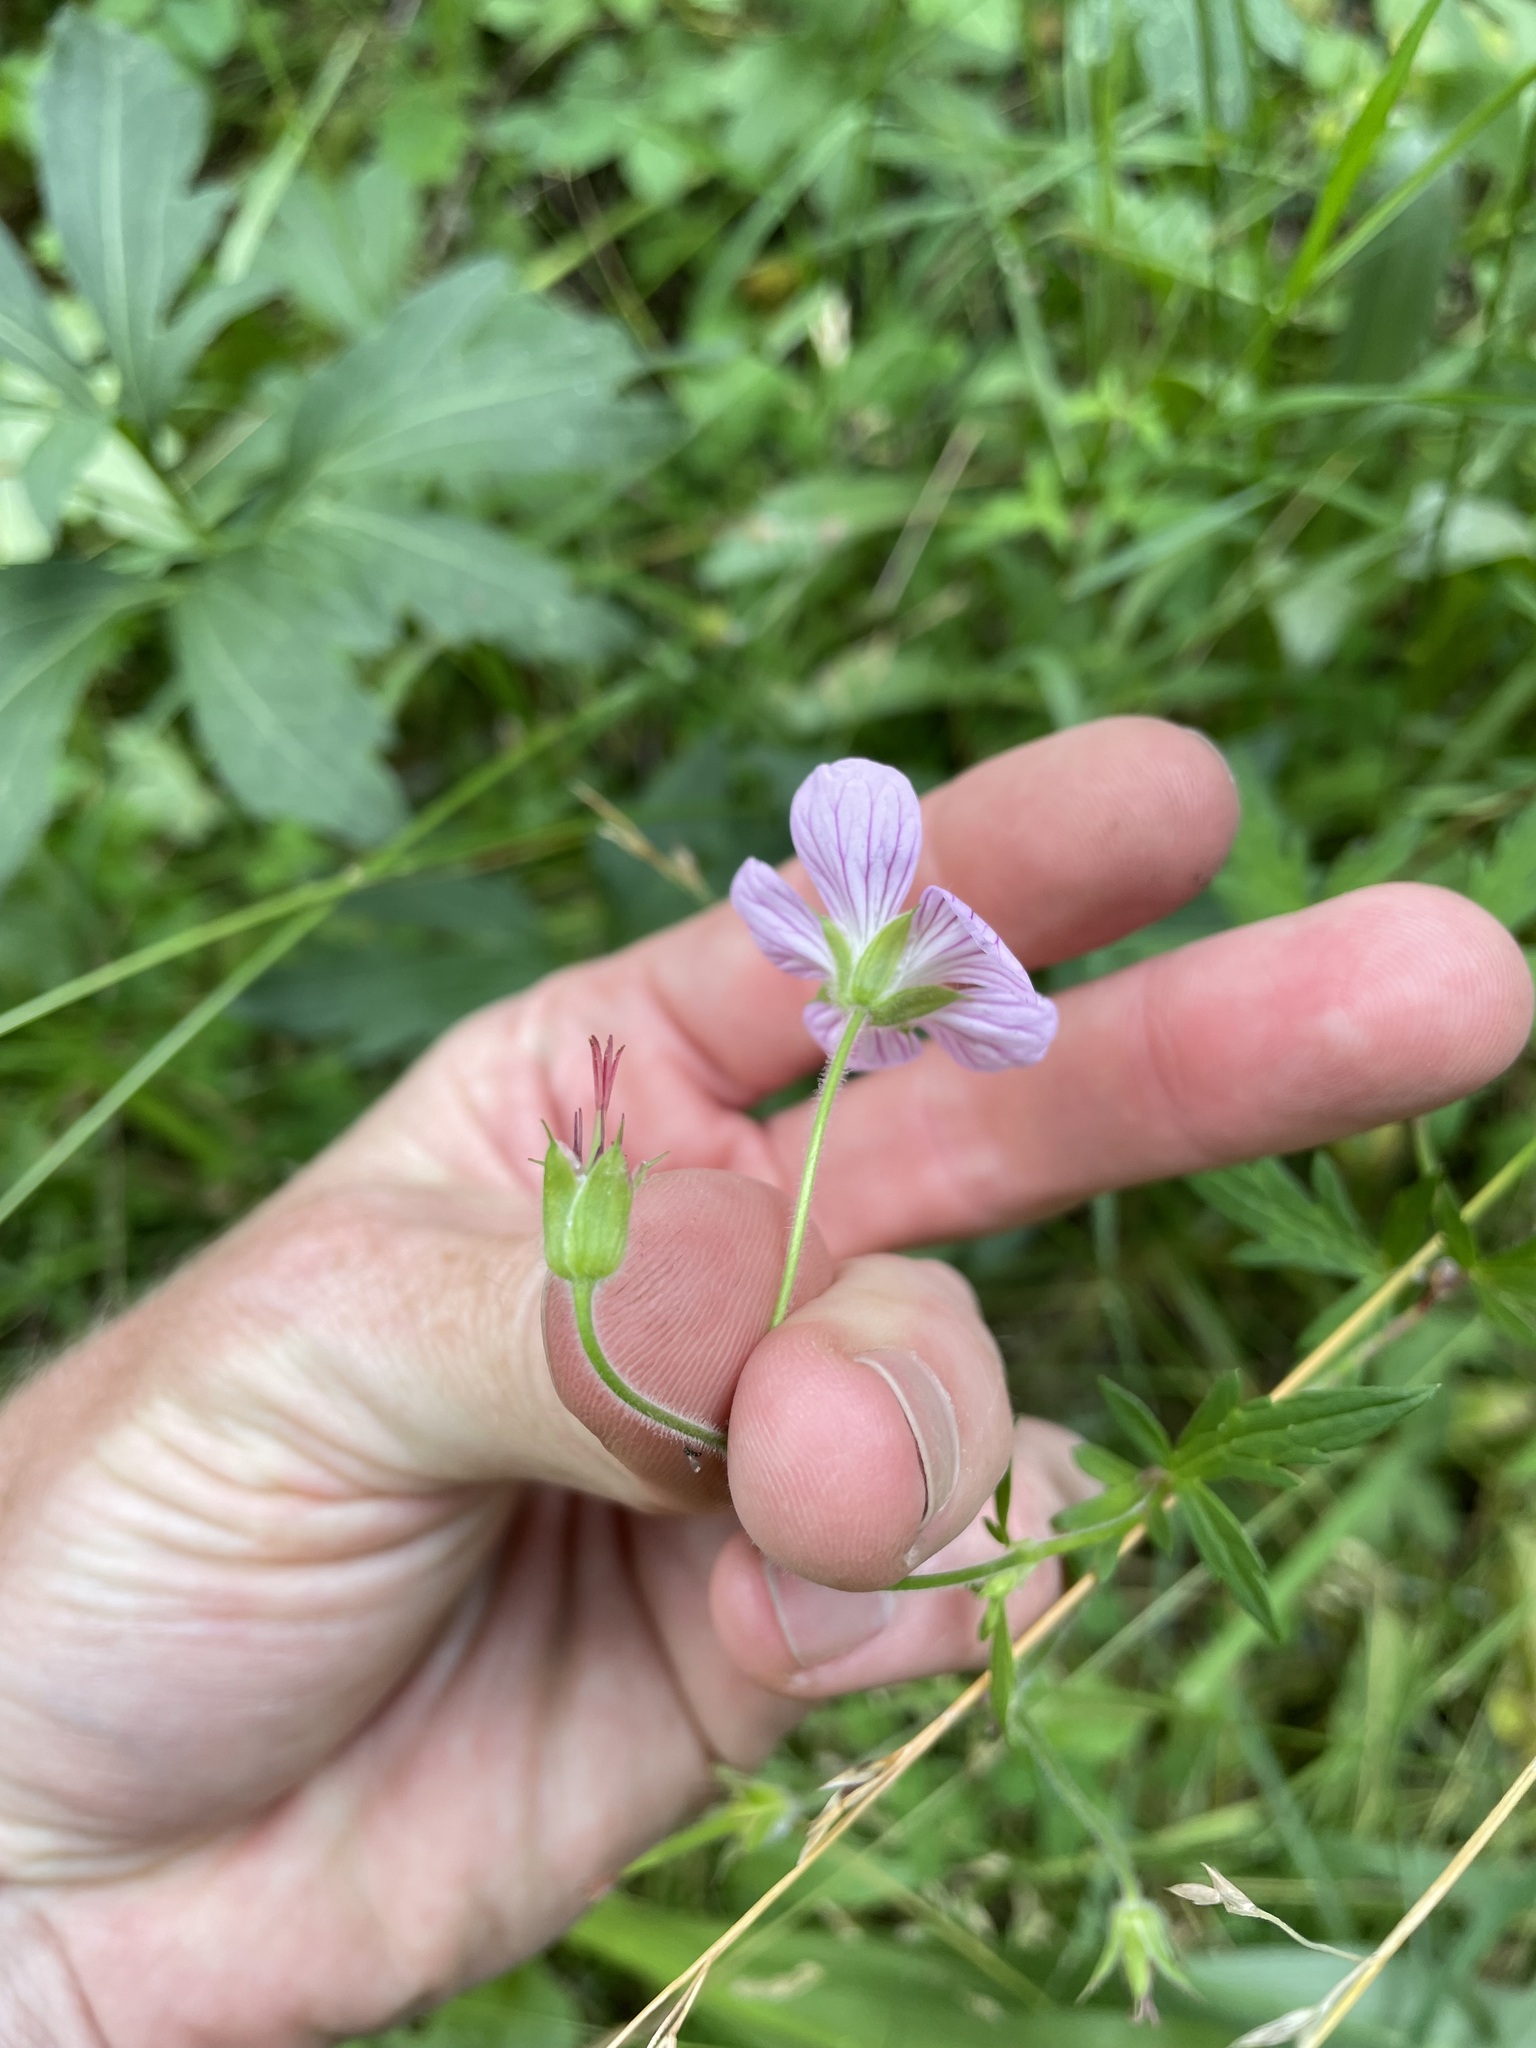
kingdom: Plantae
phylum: Tracheophyta
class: Magnoliopsida
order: Geraniales
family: Geraniaceae
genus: Geranium
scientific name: Geranium richardsonii
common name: Richardson's crane's-bill
